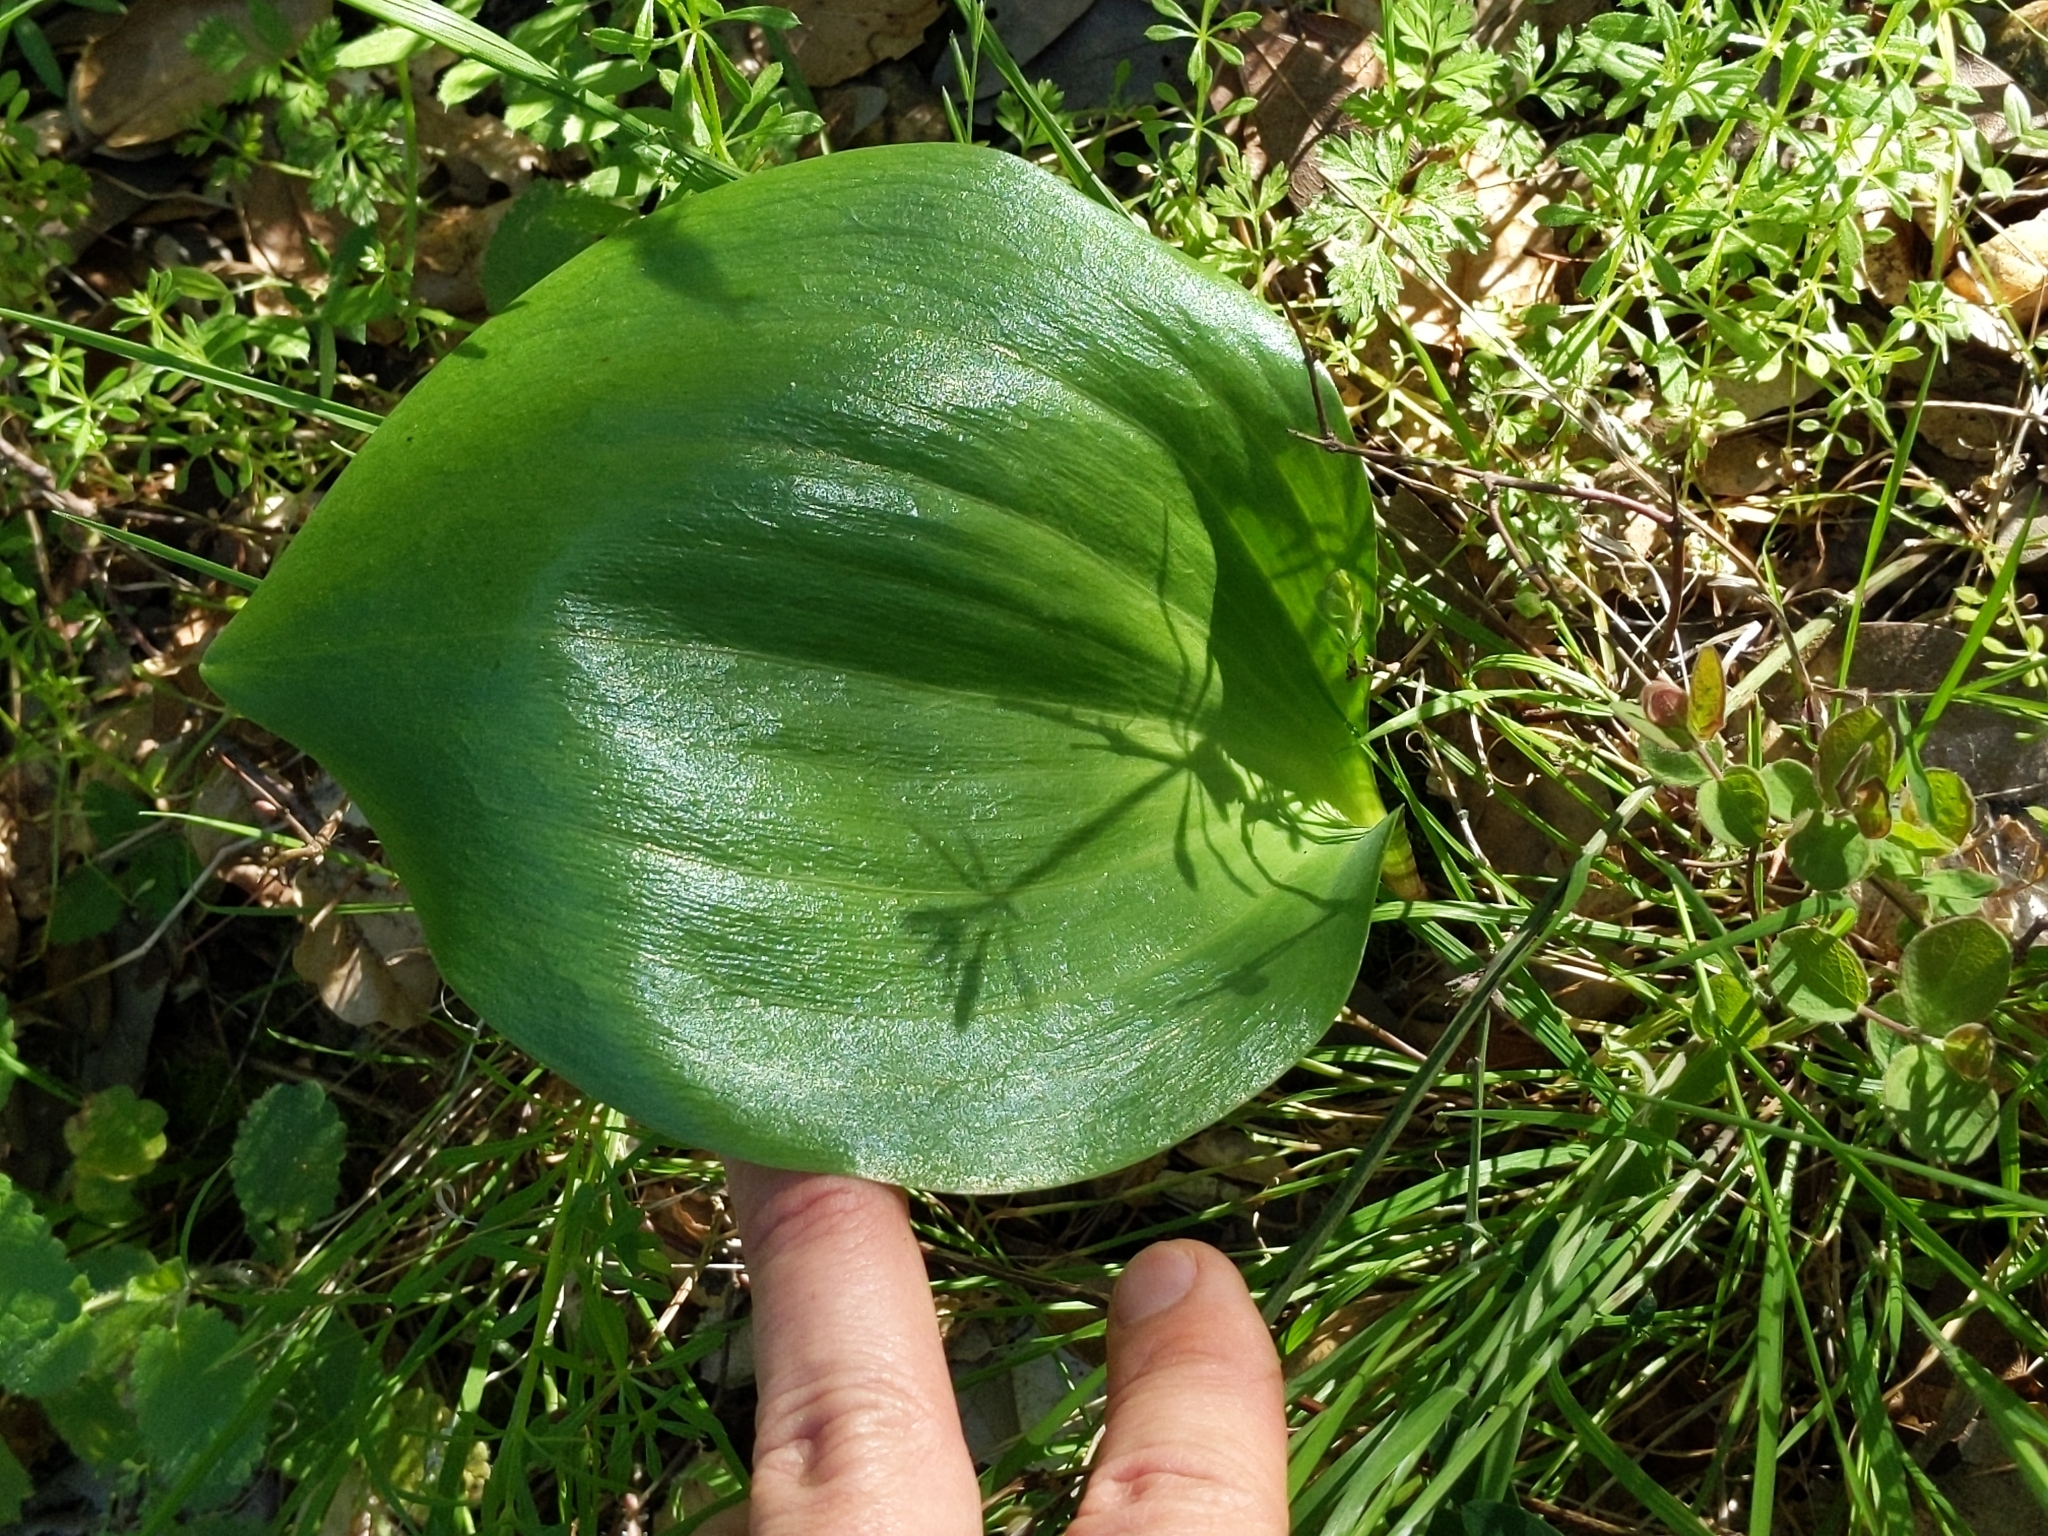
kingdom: Plantae
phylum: Tracheophyta
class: Liliopsida
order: Liliales
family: Liliaceae
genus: Fritillaria
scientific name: Fritillaria affinis
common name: Ojai fritillary
